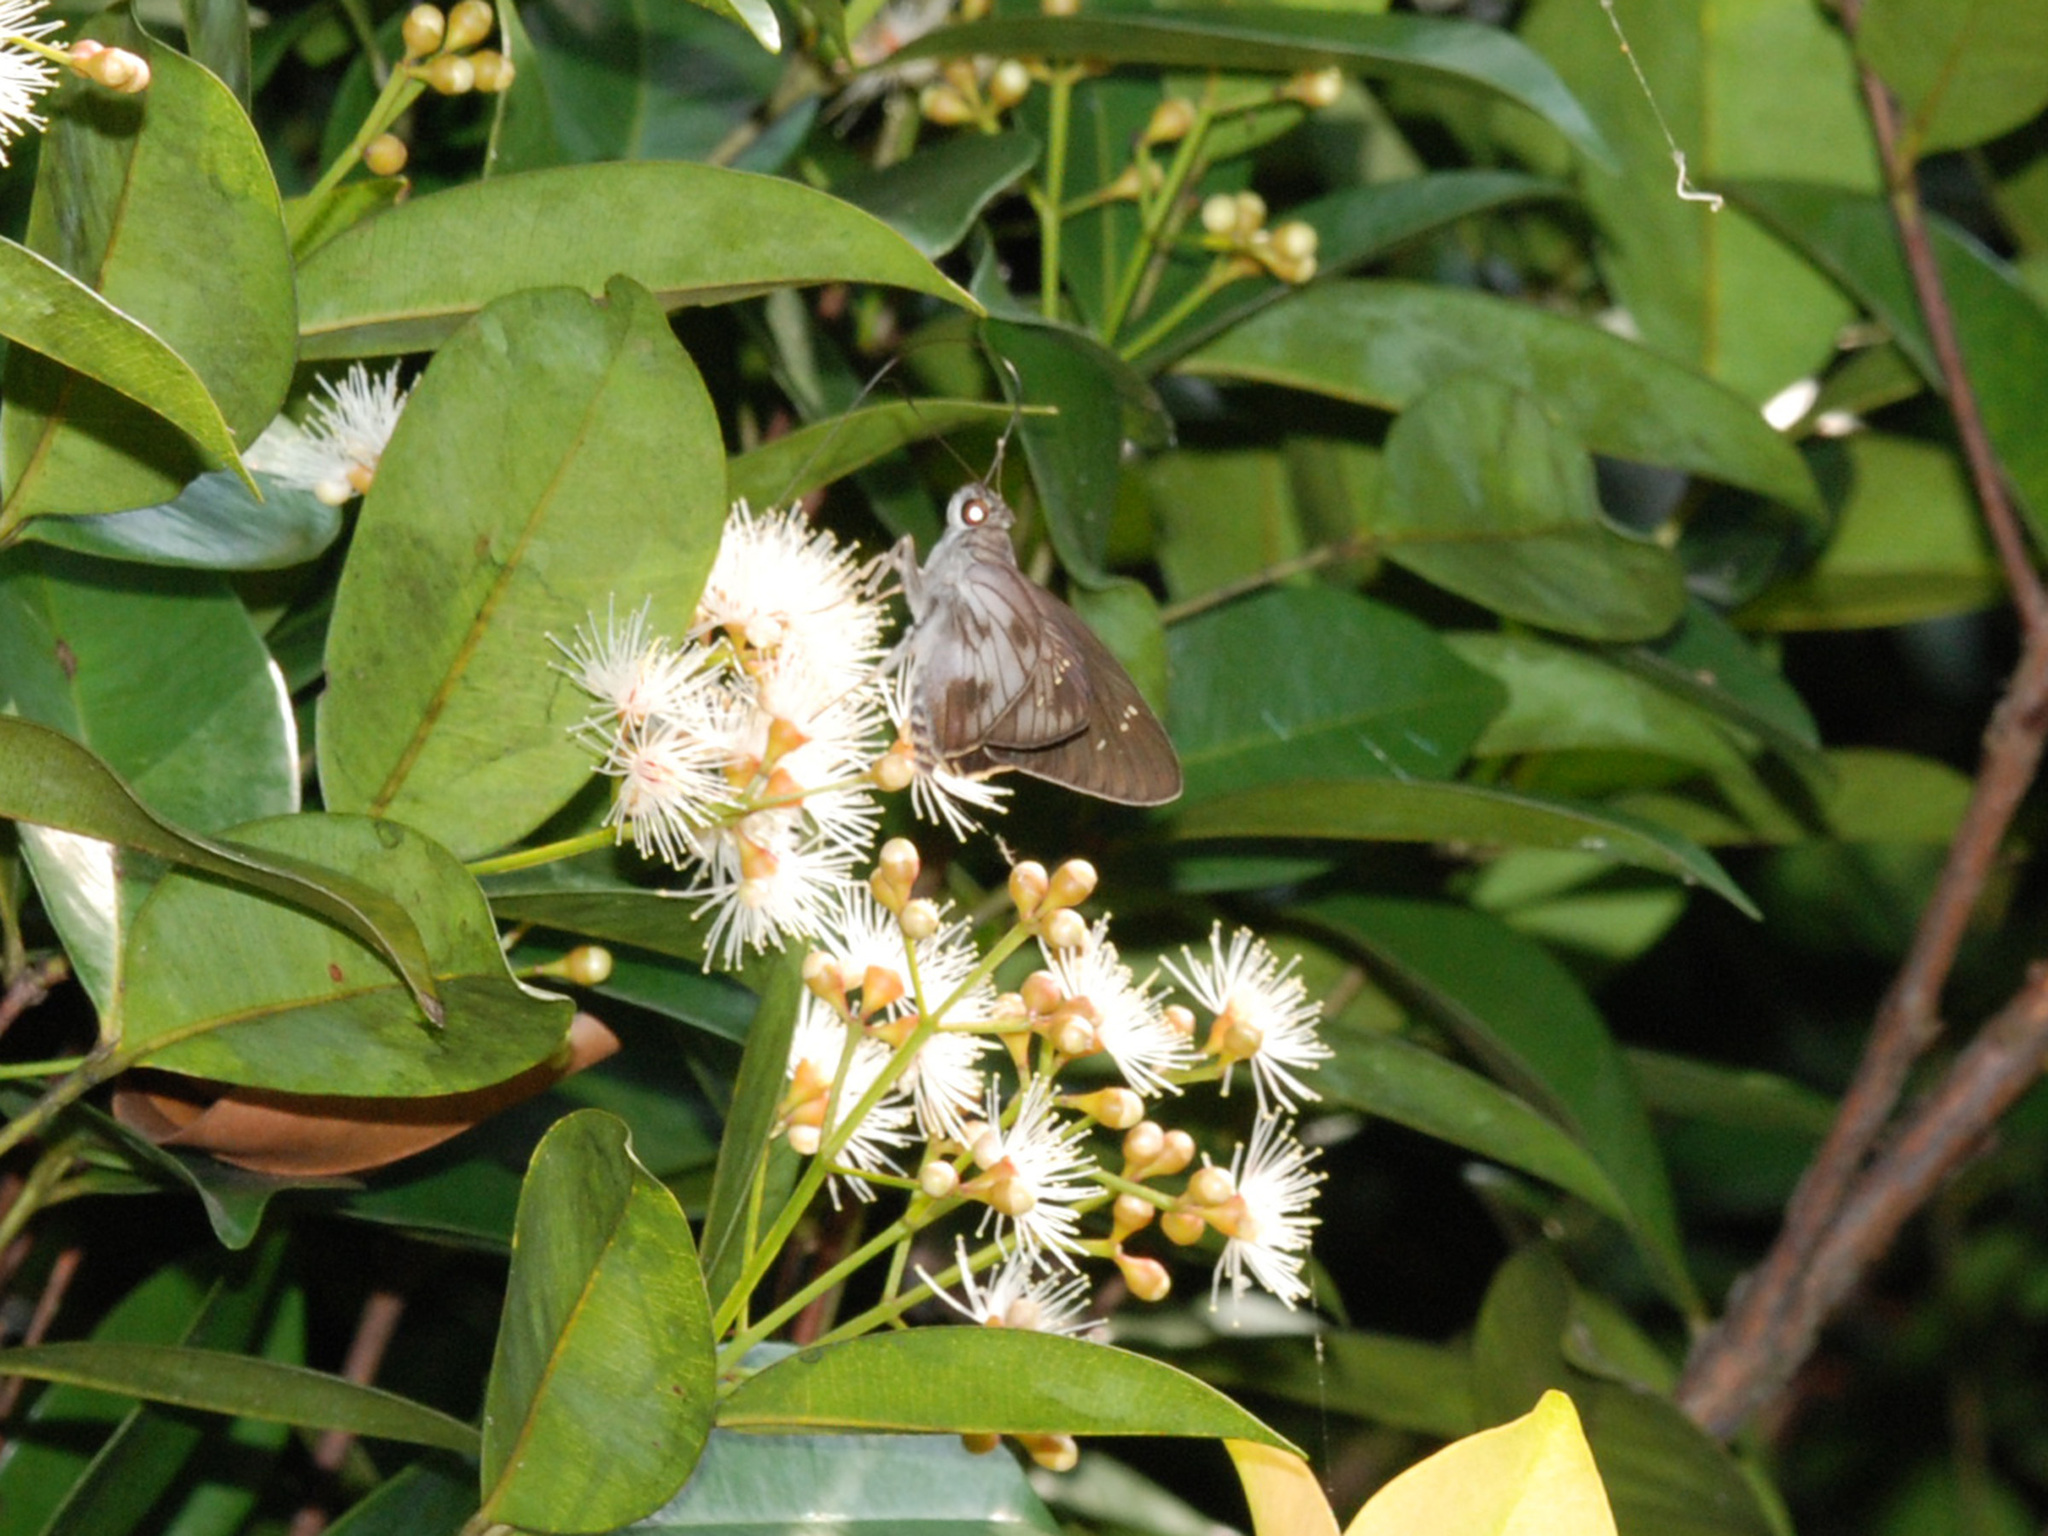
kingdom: Animalia
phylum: Arthropoda
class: Insecta
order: Lepidoptera
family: Hesperiidae
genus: Unkana
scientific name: Unkana ambasa
